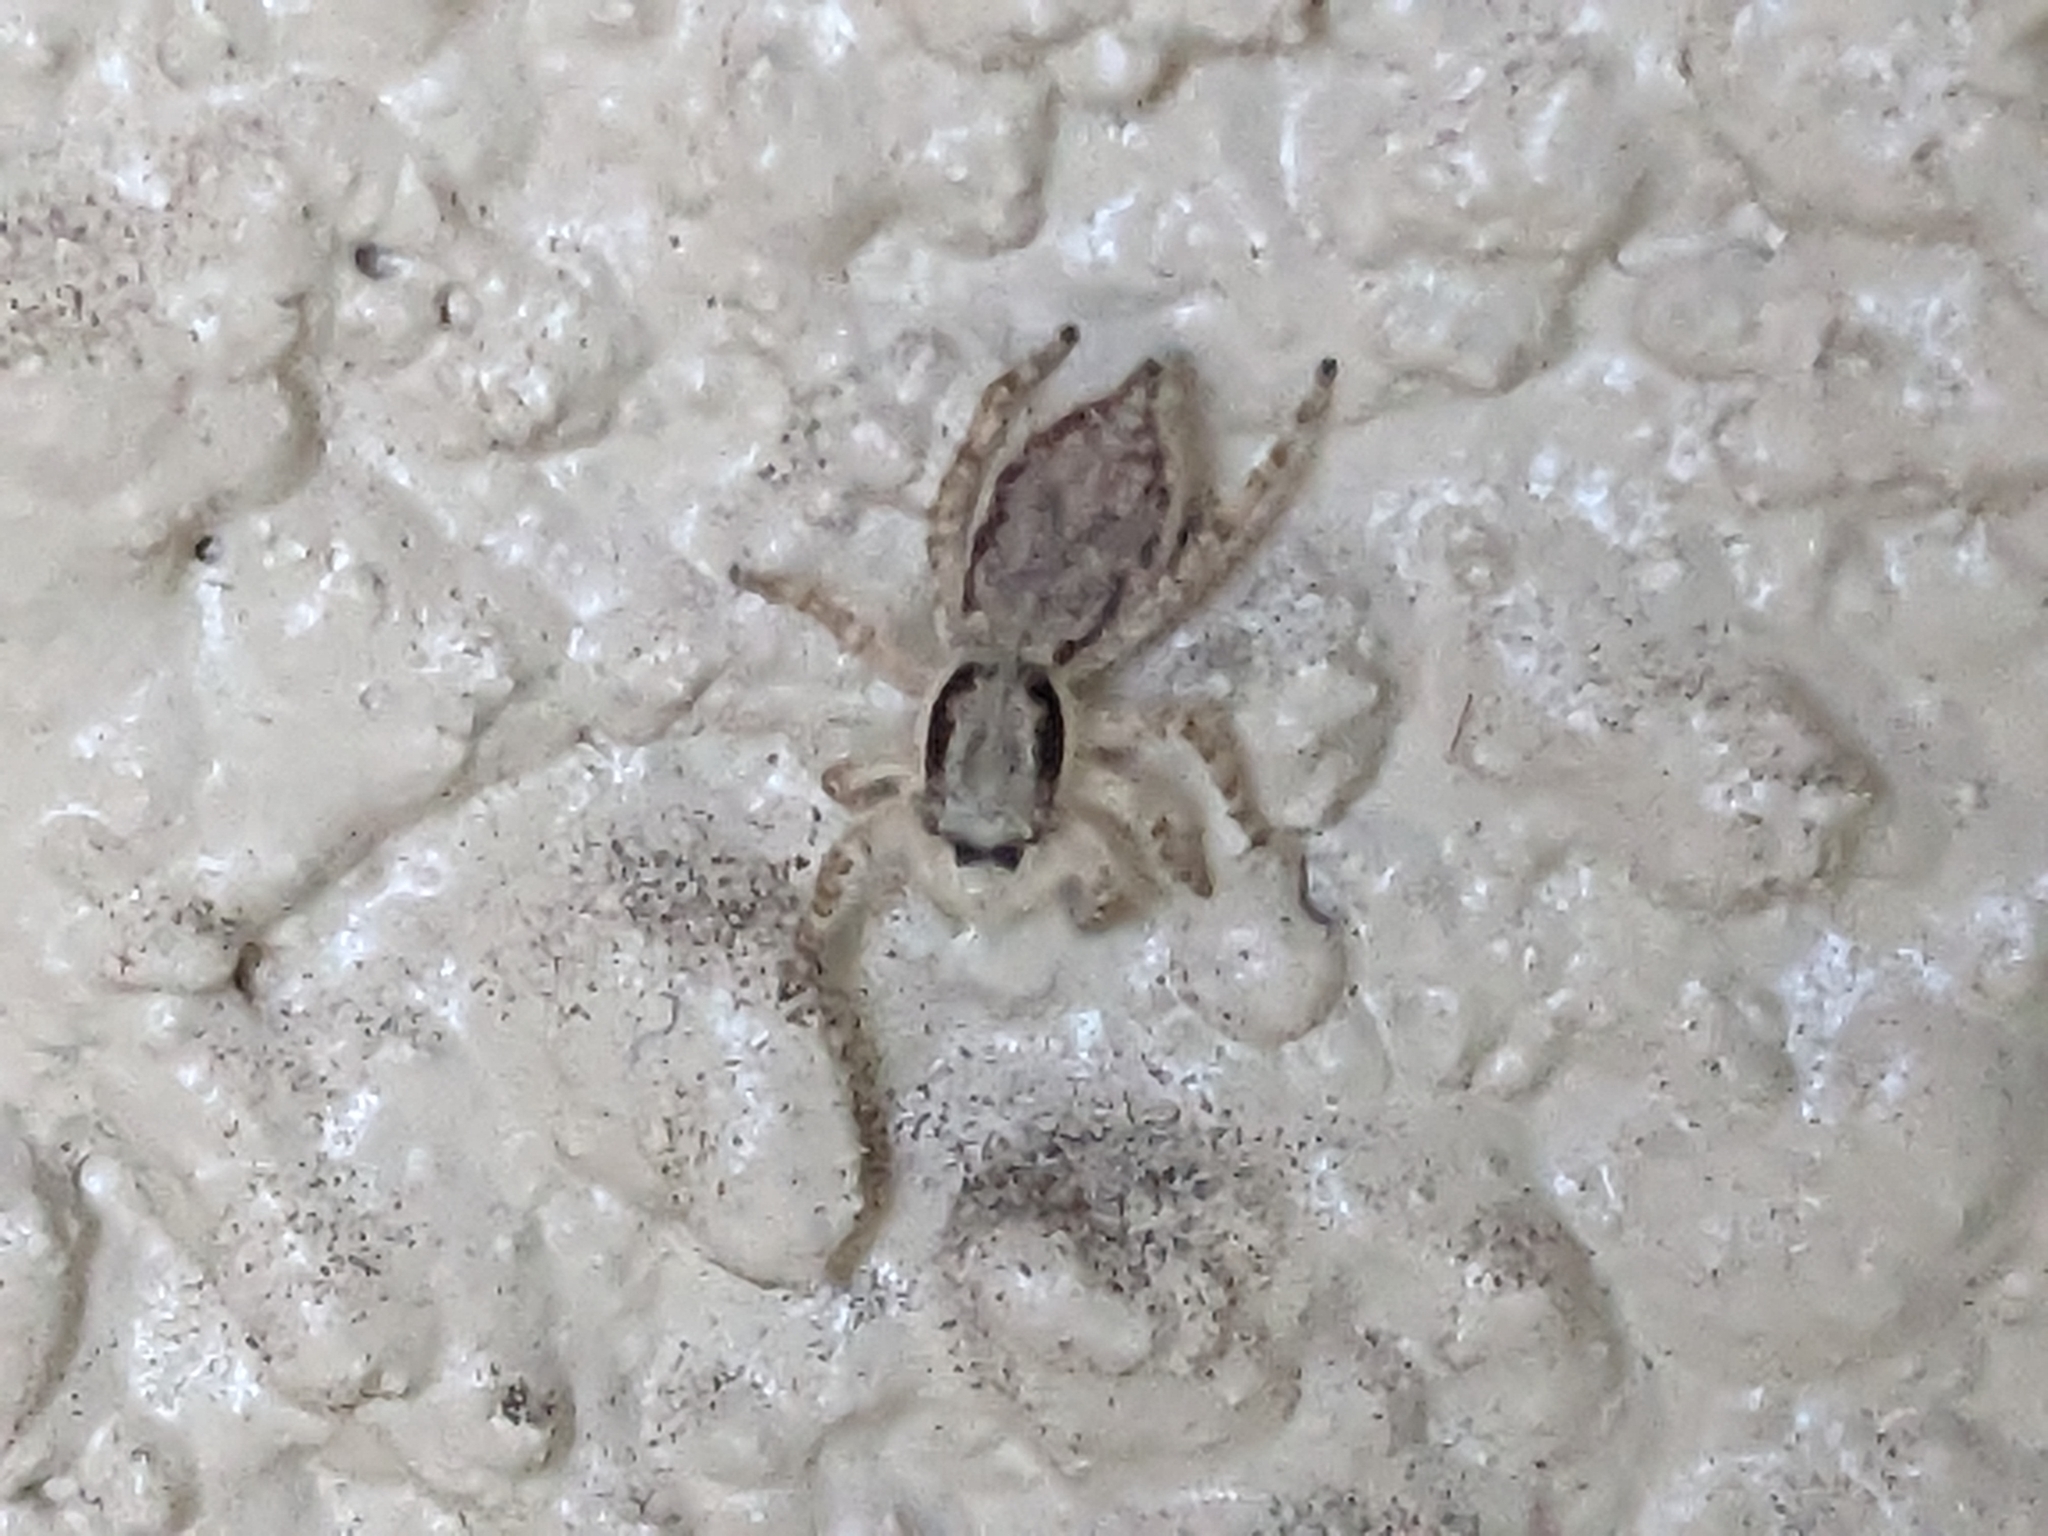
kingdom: Animalia
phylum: Arthropoda
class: Arachnida
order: Araneae
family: Salticidae
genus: Menemerus
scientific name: Menemerus bivittatus
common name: Gray wall jumper
